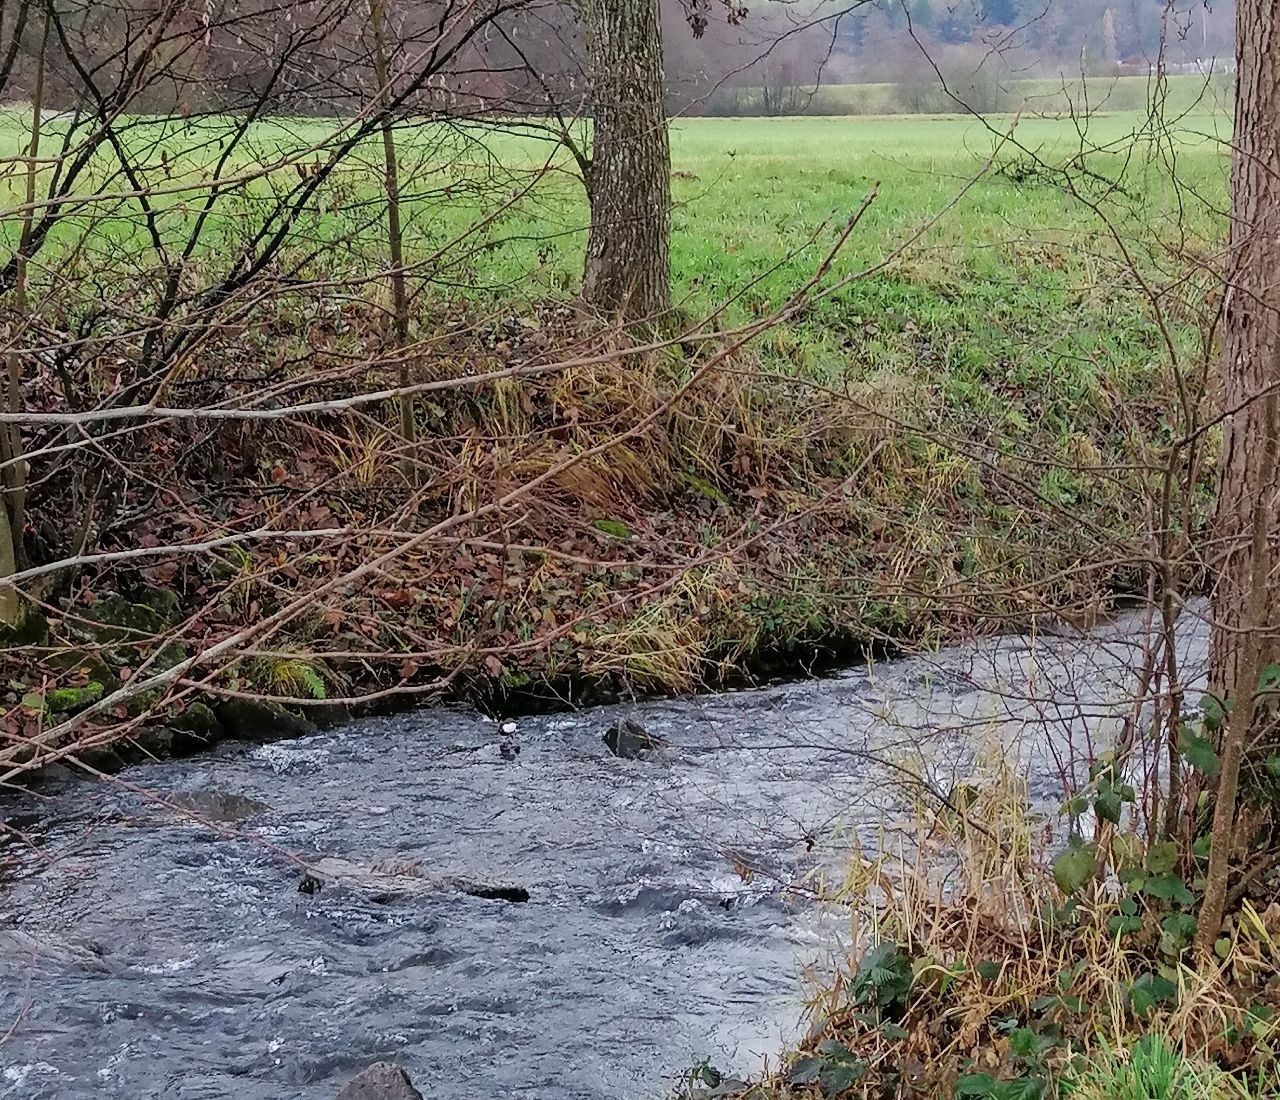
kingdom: Animalia
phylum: Chordata
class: Aves
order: Passeriformes
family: Cinclidae
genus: Cinclus
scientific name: Cinclus cinclus
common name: White-throated dipper
